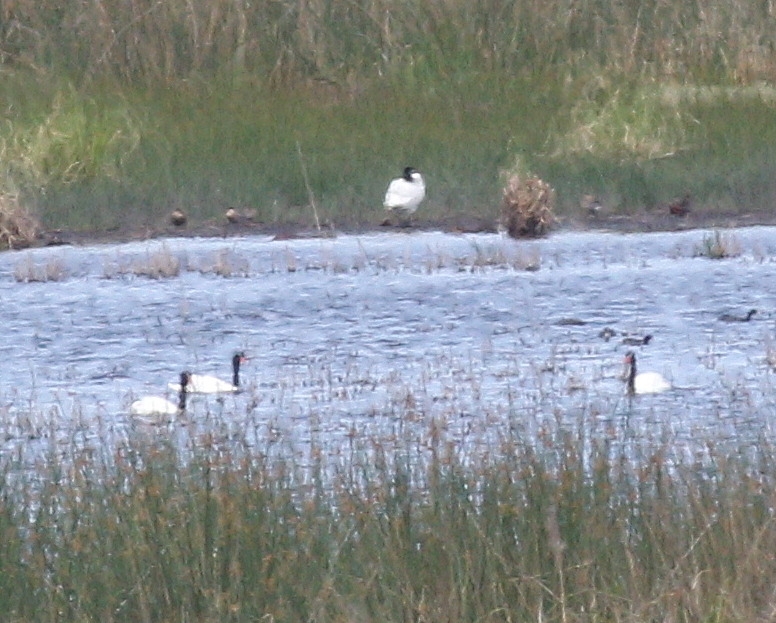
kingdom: Animalia
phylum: Chordata
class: Aves
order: Anseriformes
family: Anatidae
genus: Cygnus
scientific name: Cygnus melancoryphus
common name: Black-necked swan
